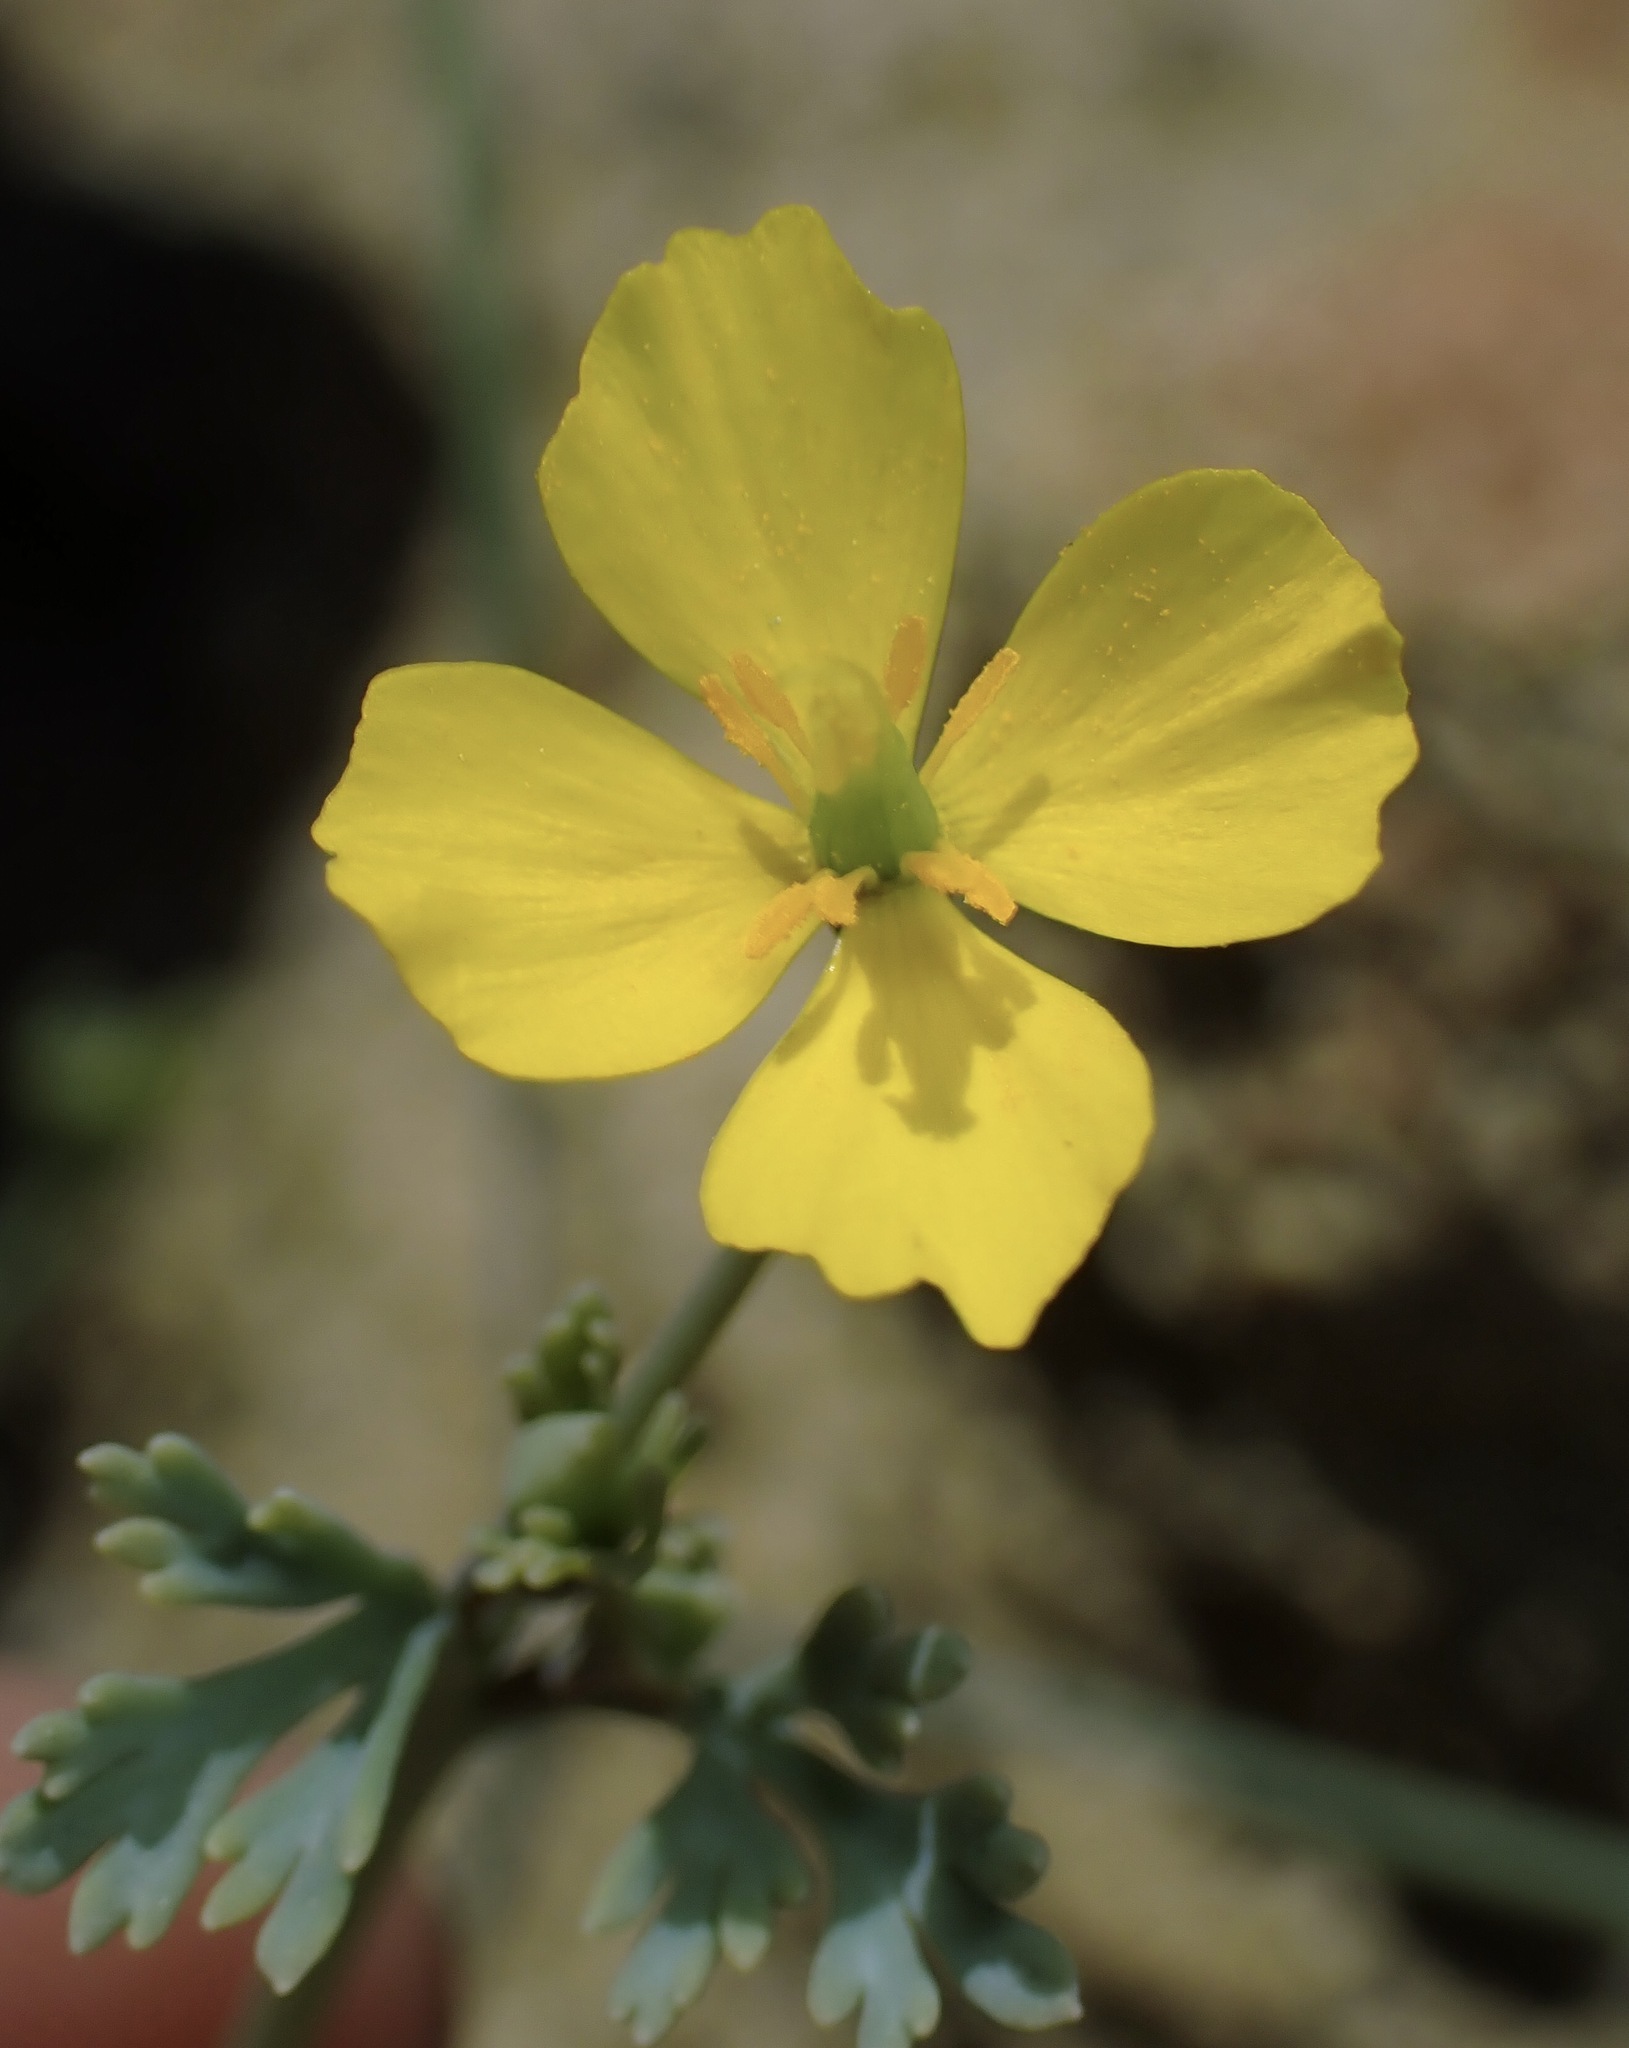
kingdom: Plantae
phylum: Tracheophyta
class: Magnoliopsida
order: Ranunculales
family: Papaveraceae
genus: Eschscholzia
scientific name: Eschscholzia minutiflora
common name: Small-flower california-poppy
